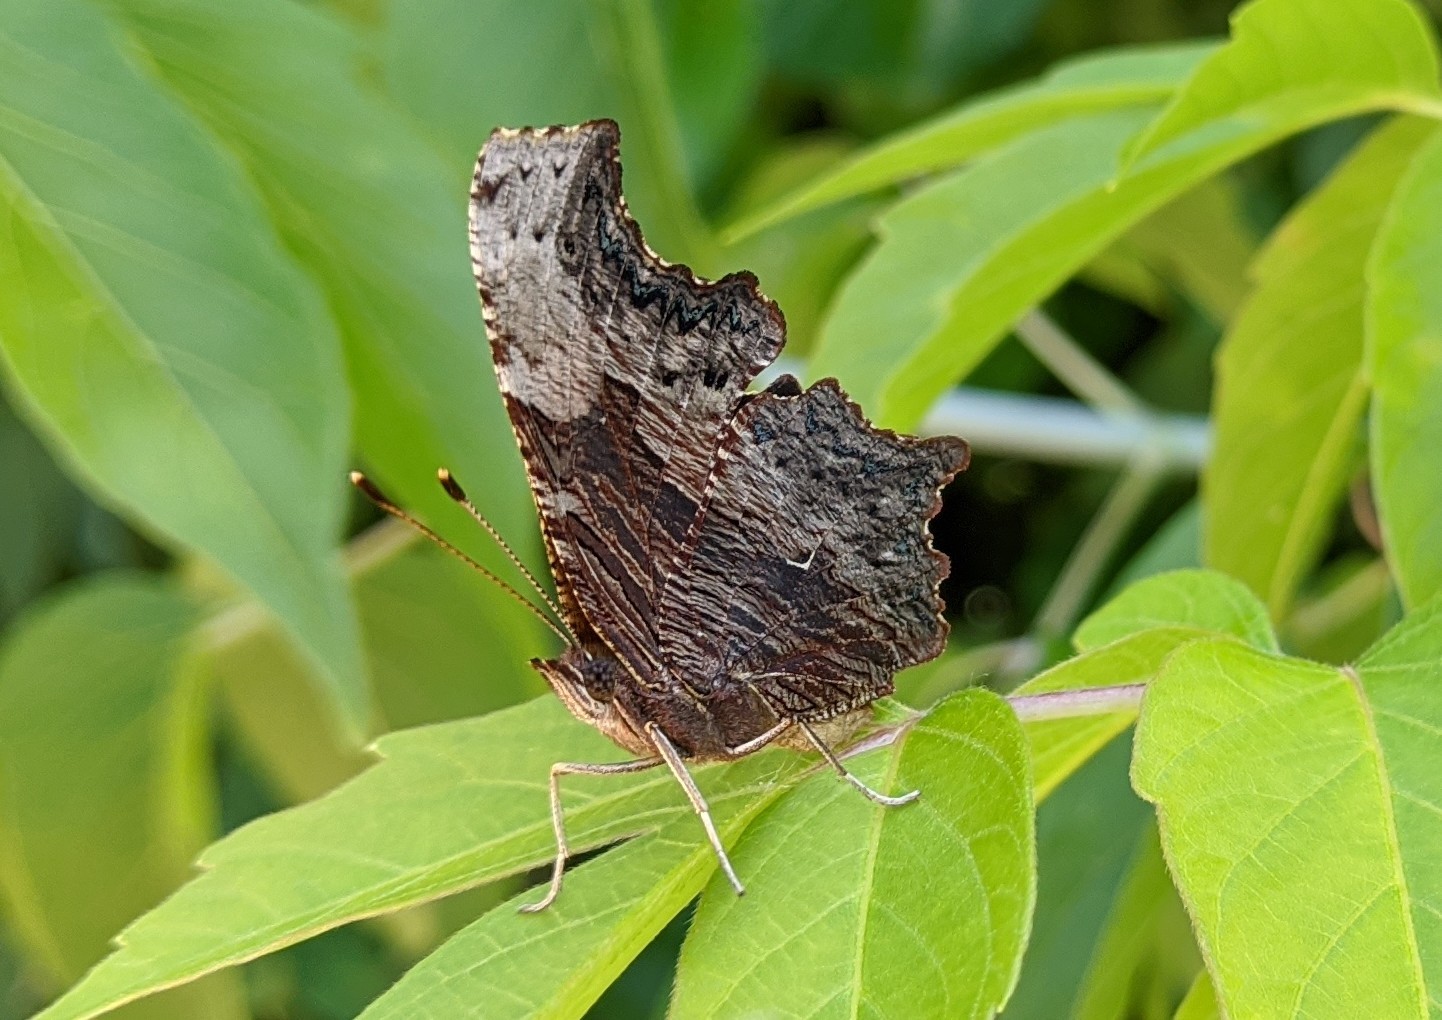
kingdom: Animalia
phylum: Arthropoda
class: Insecta
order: Lepidoptera
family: Nymphalidae
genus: Polygonia
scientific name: Polygonia progne
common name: Gray comma
